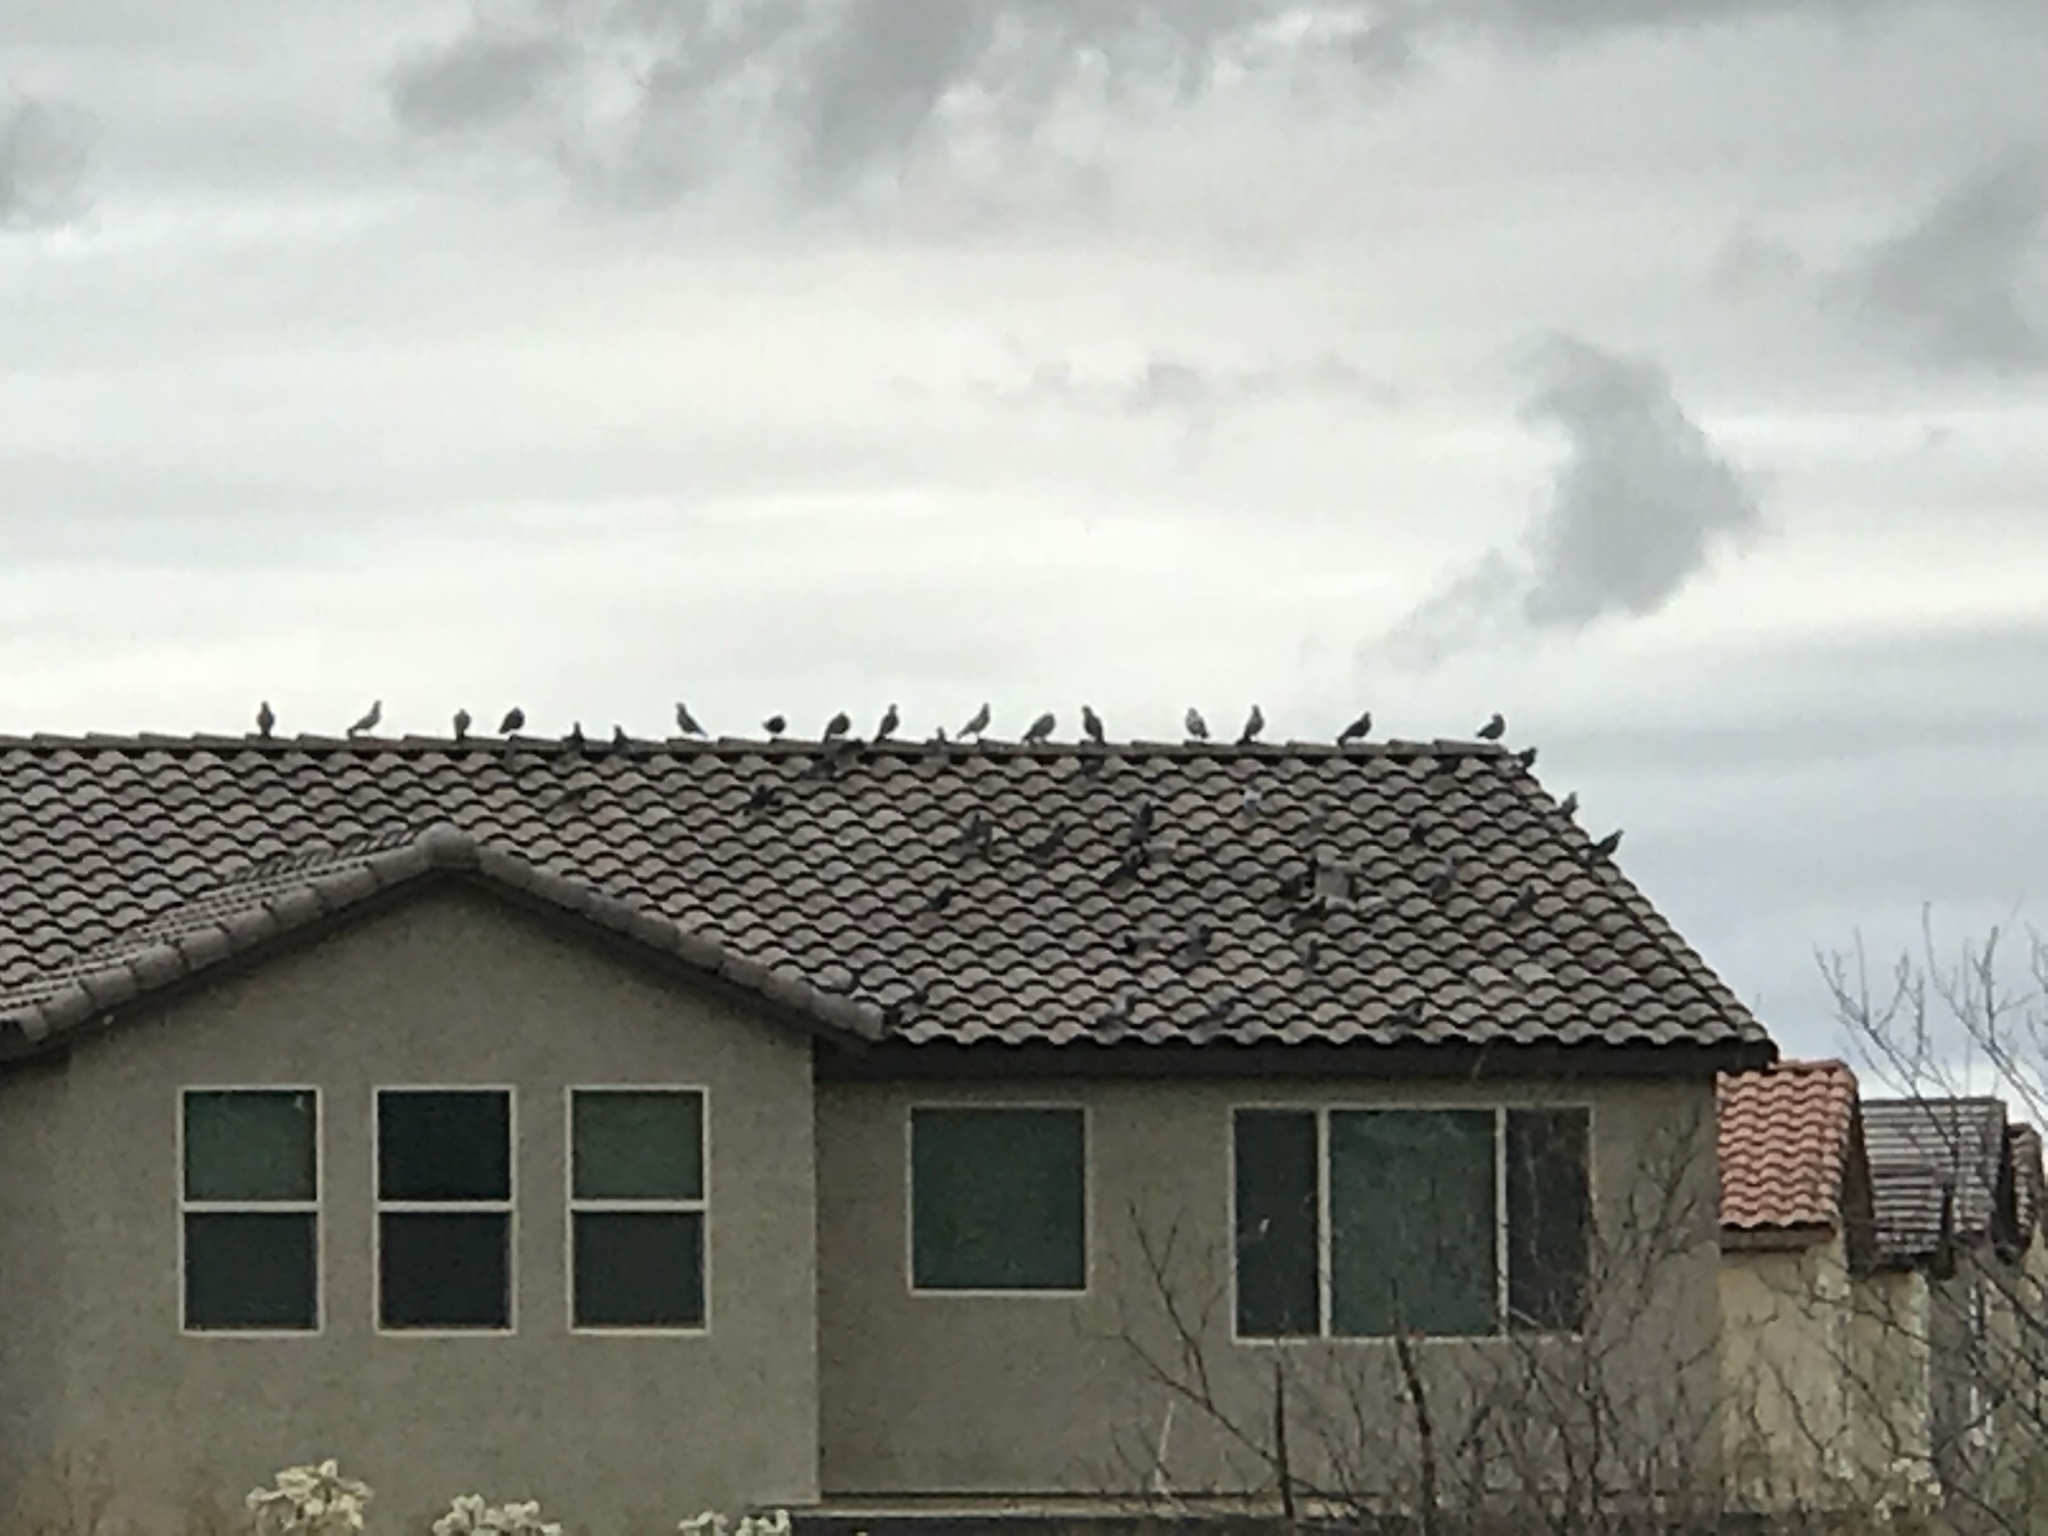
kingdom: Animalia
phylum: Chordata
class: Aves
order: Columbiformes
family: Columbidae
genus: Columba
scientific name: Columba livia
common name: Rock pigeon
